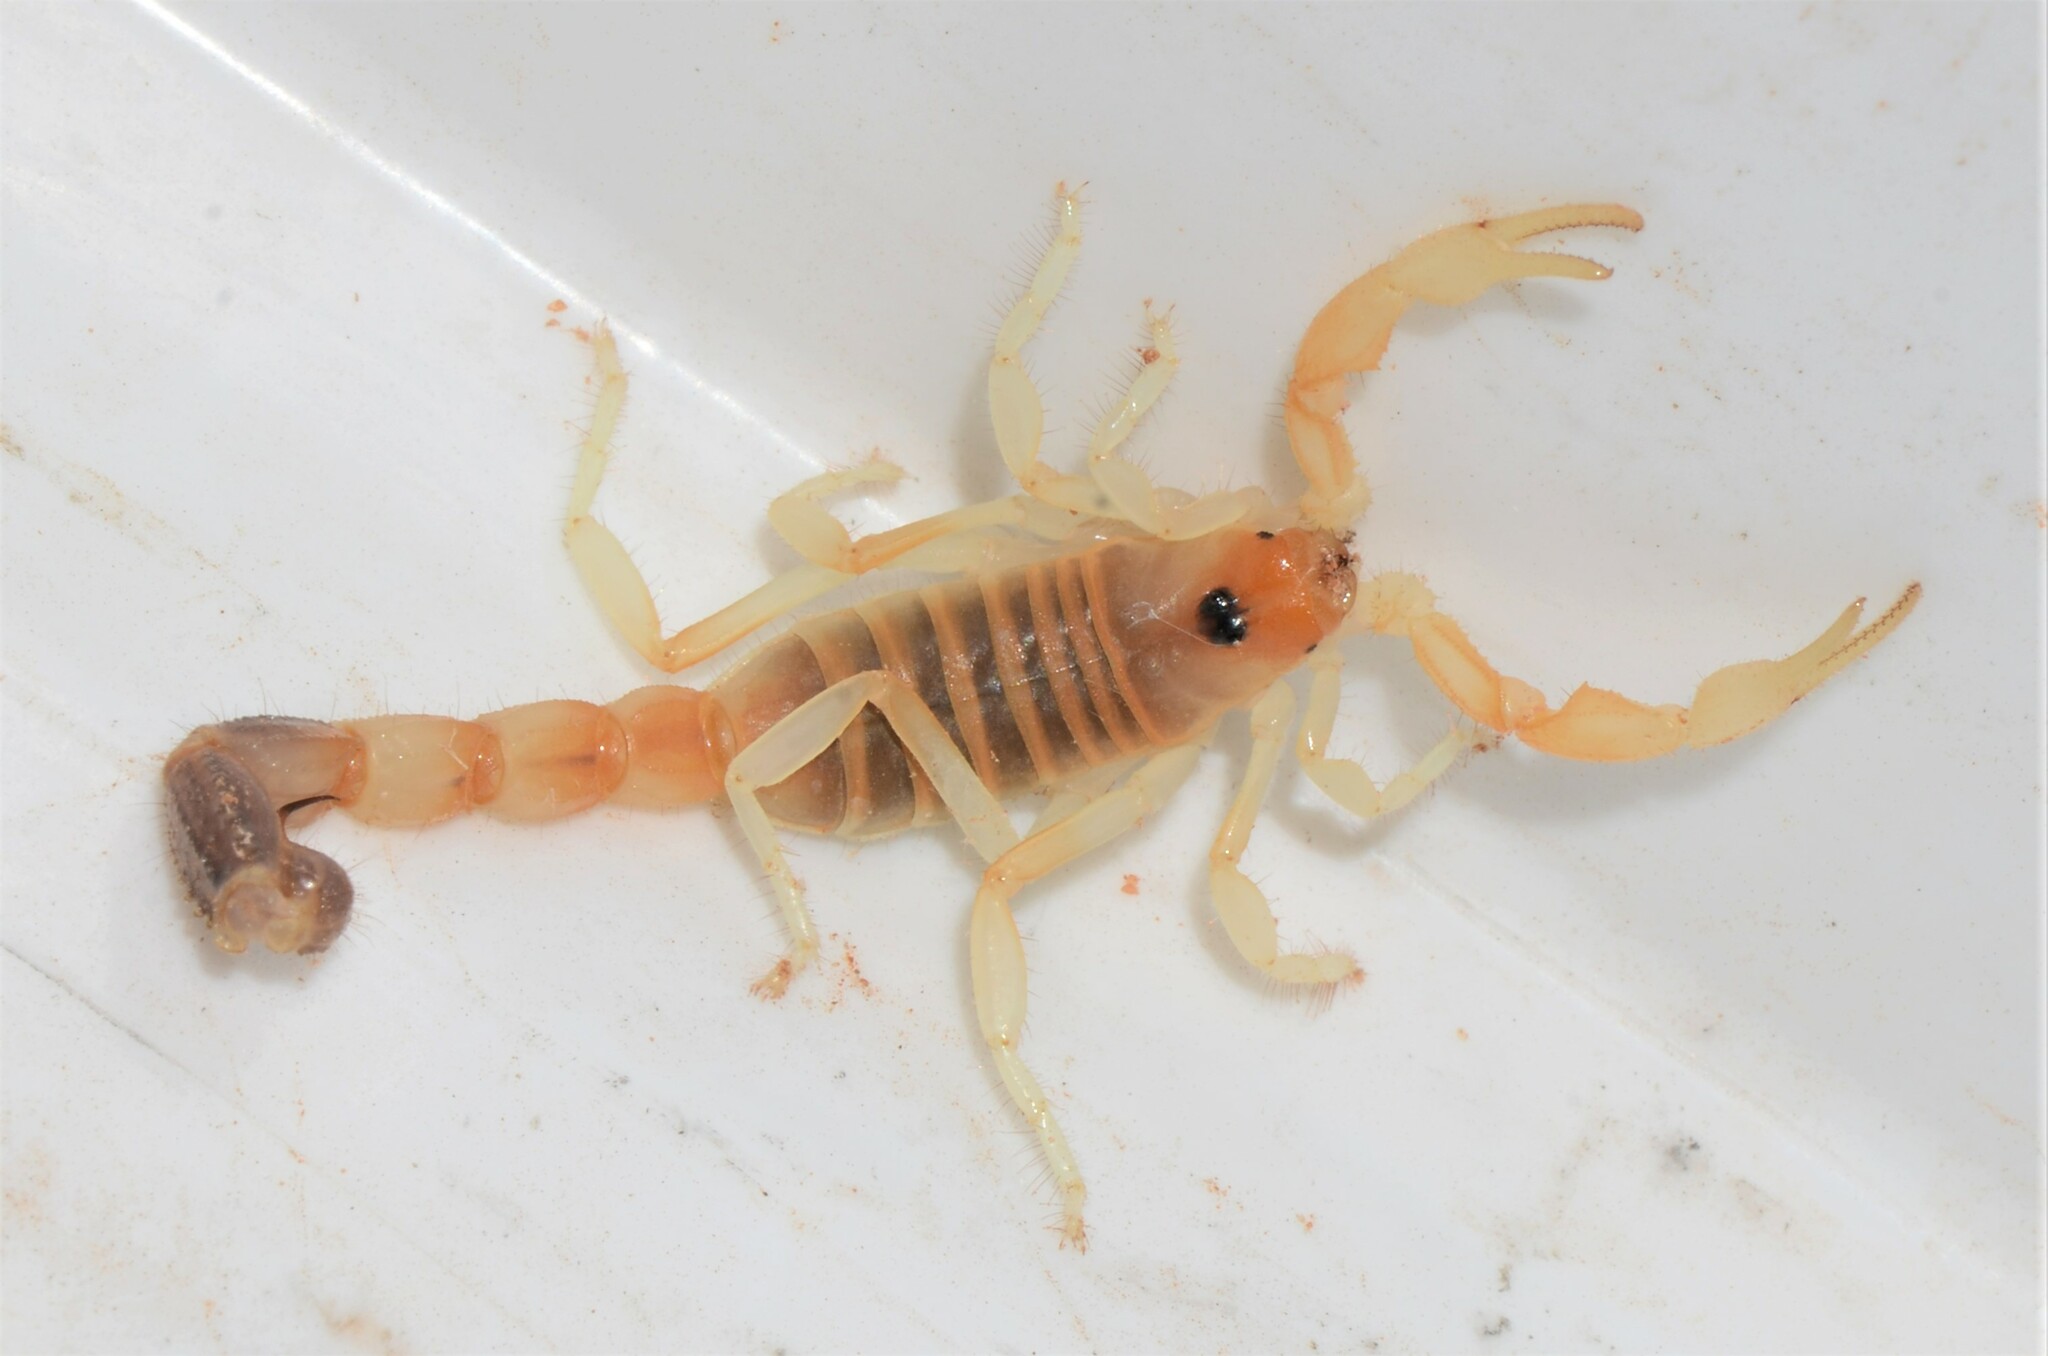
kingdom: Animalia
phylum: Arthropoda
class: Arachnida
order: Scorpiones
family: Buthidae
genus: Parabuthus
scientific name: Parabuthus laevifrons
